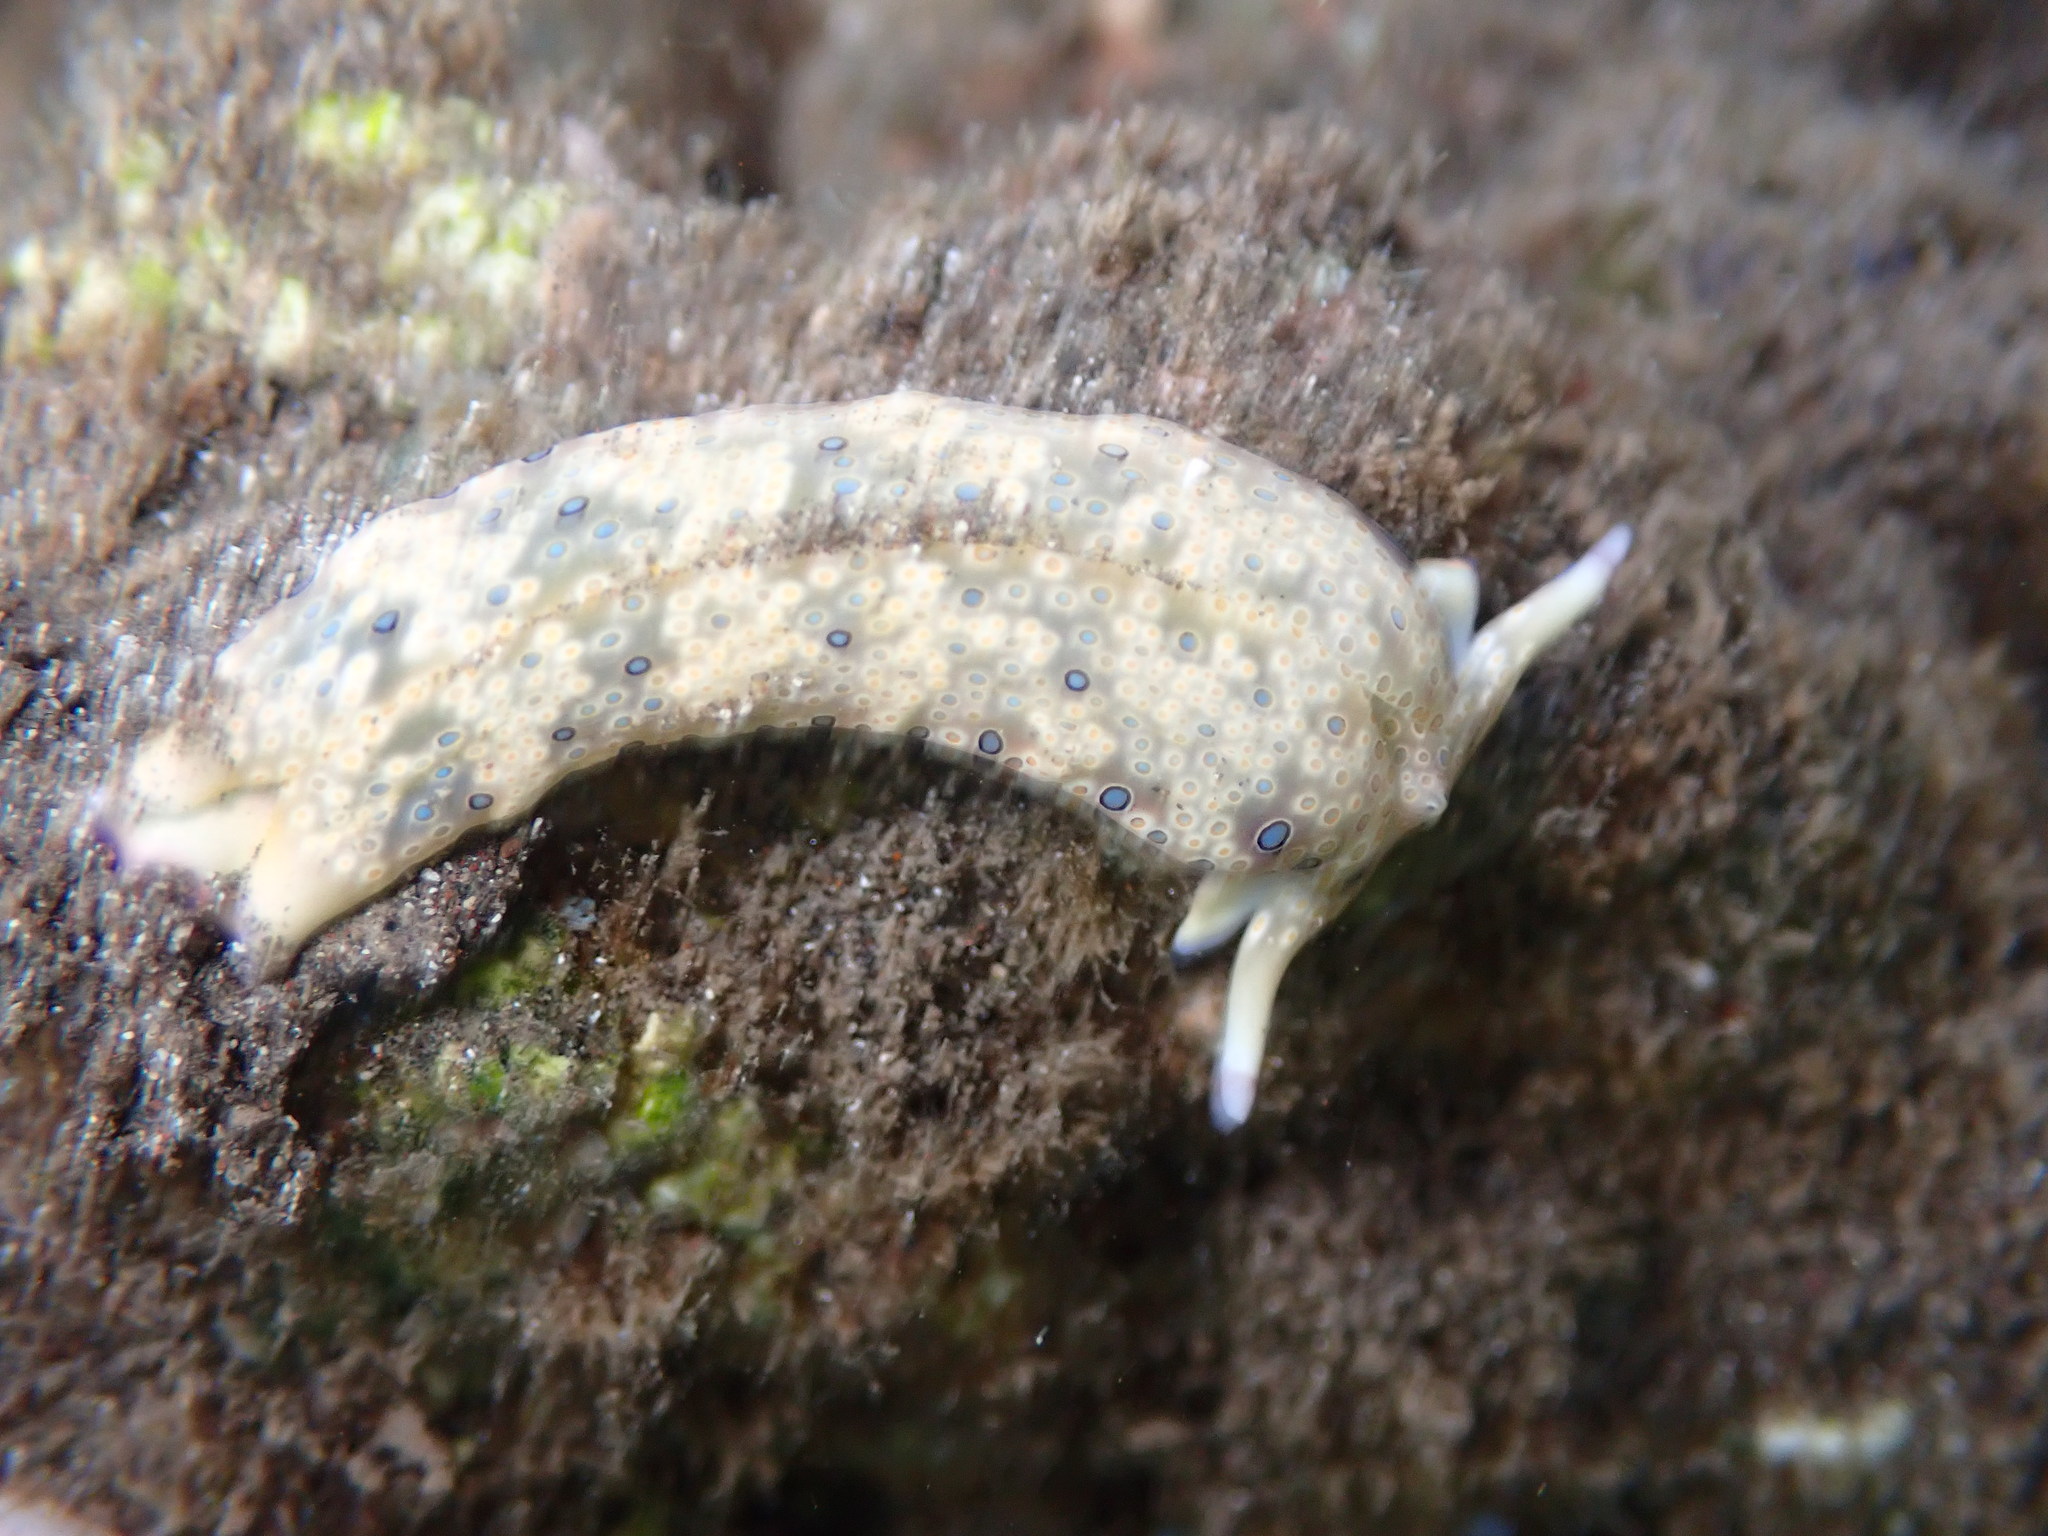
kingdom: Animalia
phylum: Mollusca
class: Gastropoda
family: Plakobranchidae
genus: Plakobranchus
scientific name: Plakobranchus ocellatus
